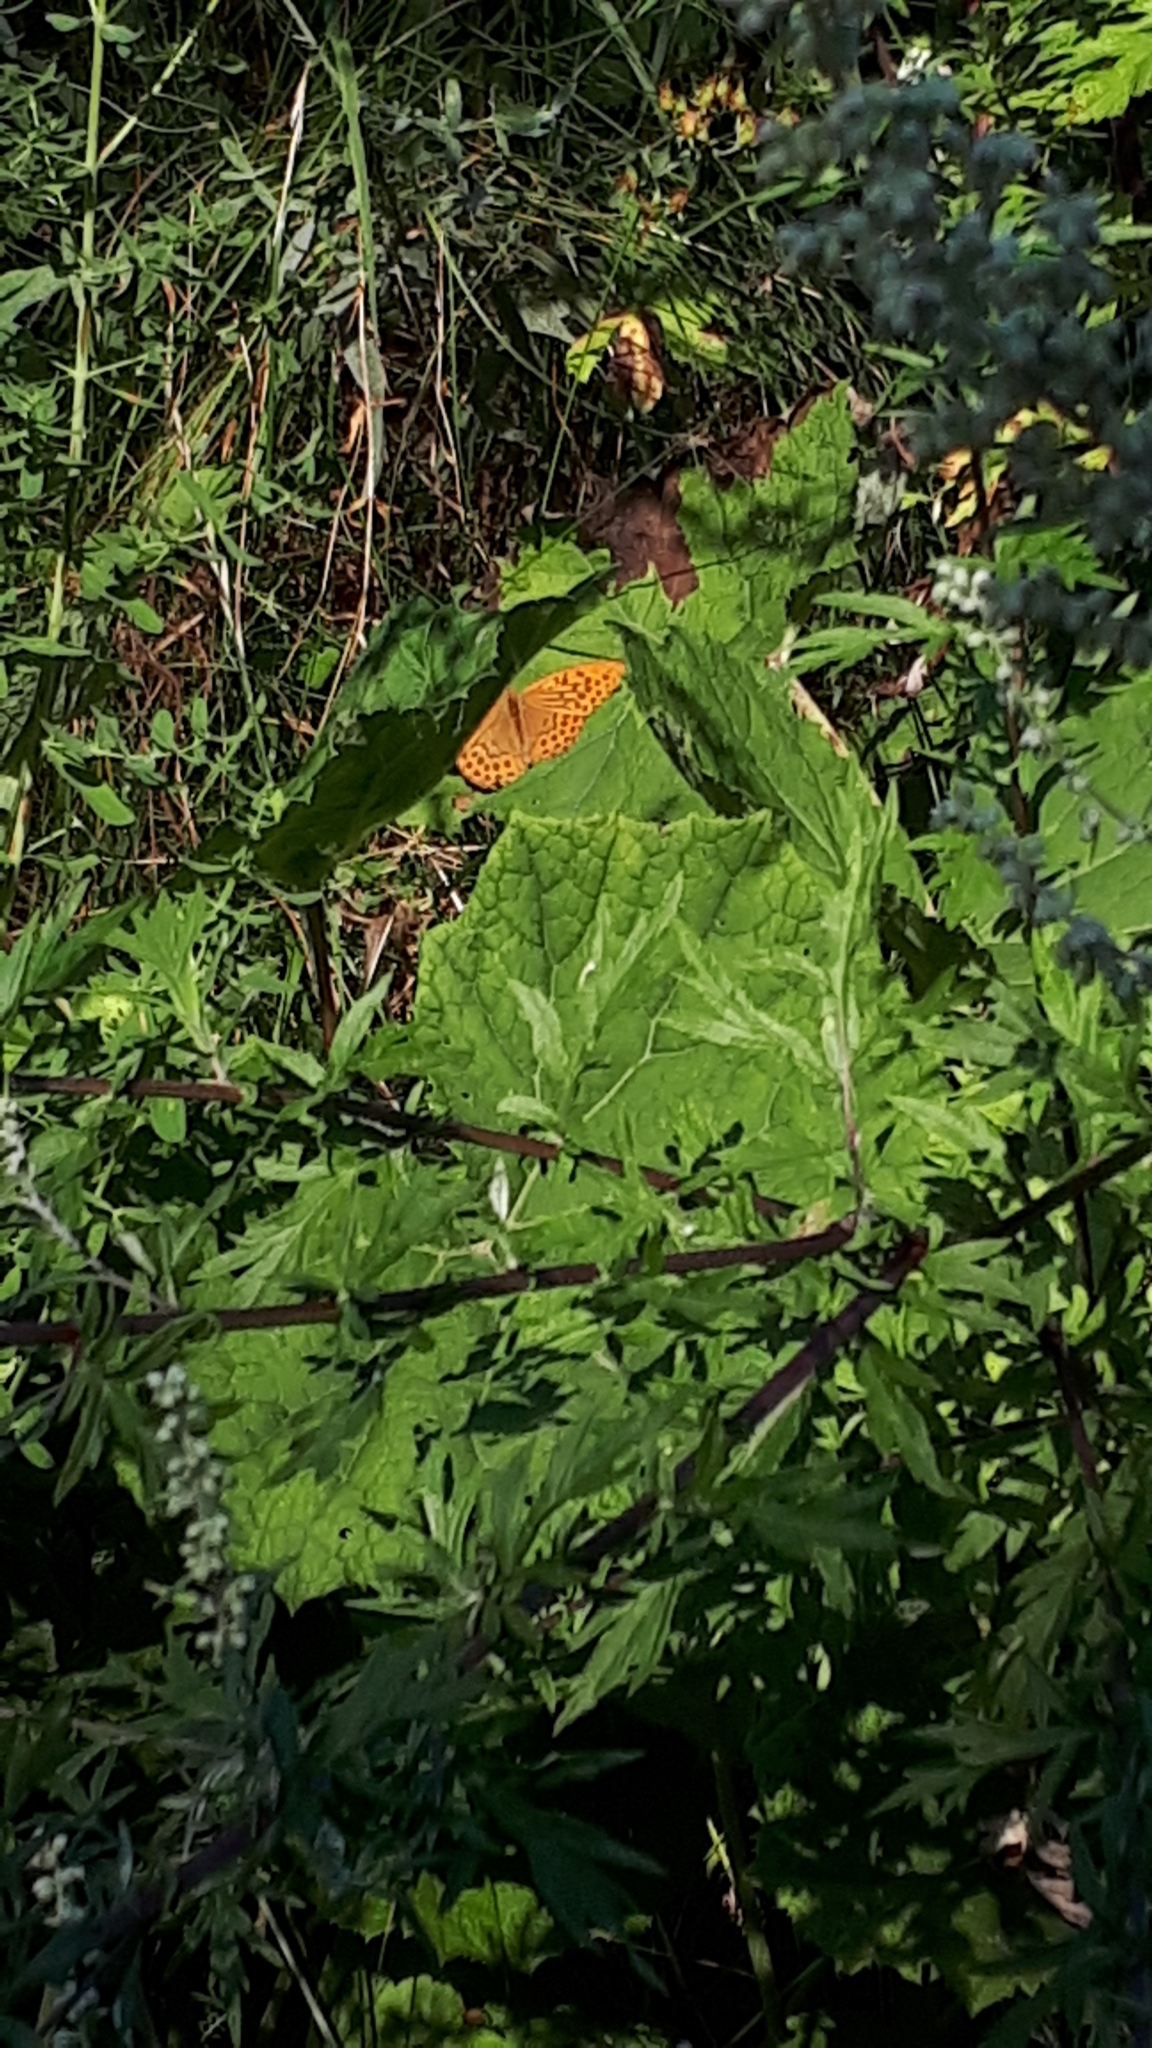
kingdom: Animalia
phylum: Arthropoda
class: Insecta
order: Lepidoptera
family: Nymphalidae
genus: Argynnis
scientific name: Argynnis paphia
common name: Silver-washed fritillary
